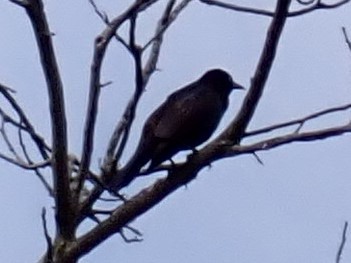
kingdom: Animalia
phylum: Chordata
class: Aves
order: Passeriformes
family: Icteridae
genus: Quiscalus
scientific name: Quiscalus quiscula
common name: Common grackle
